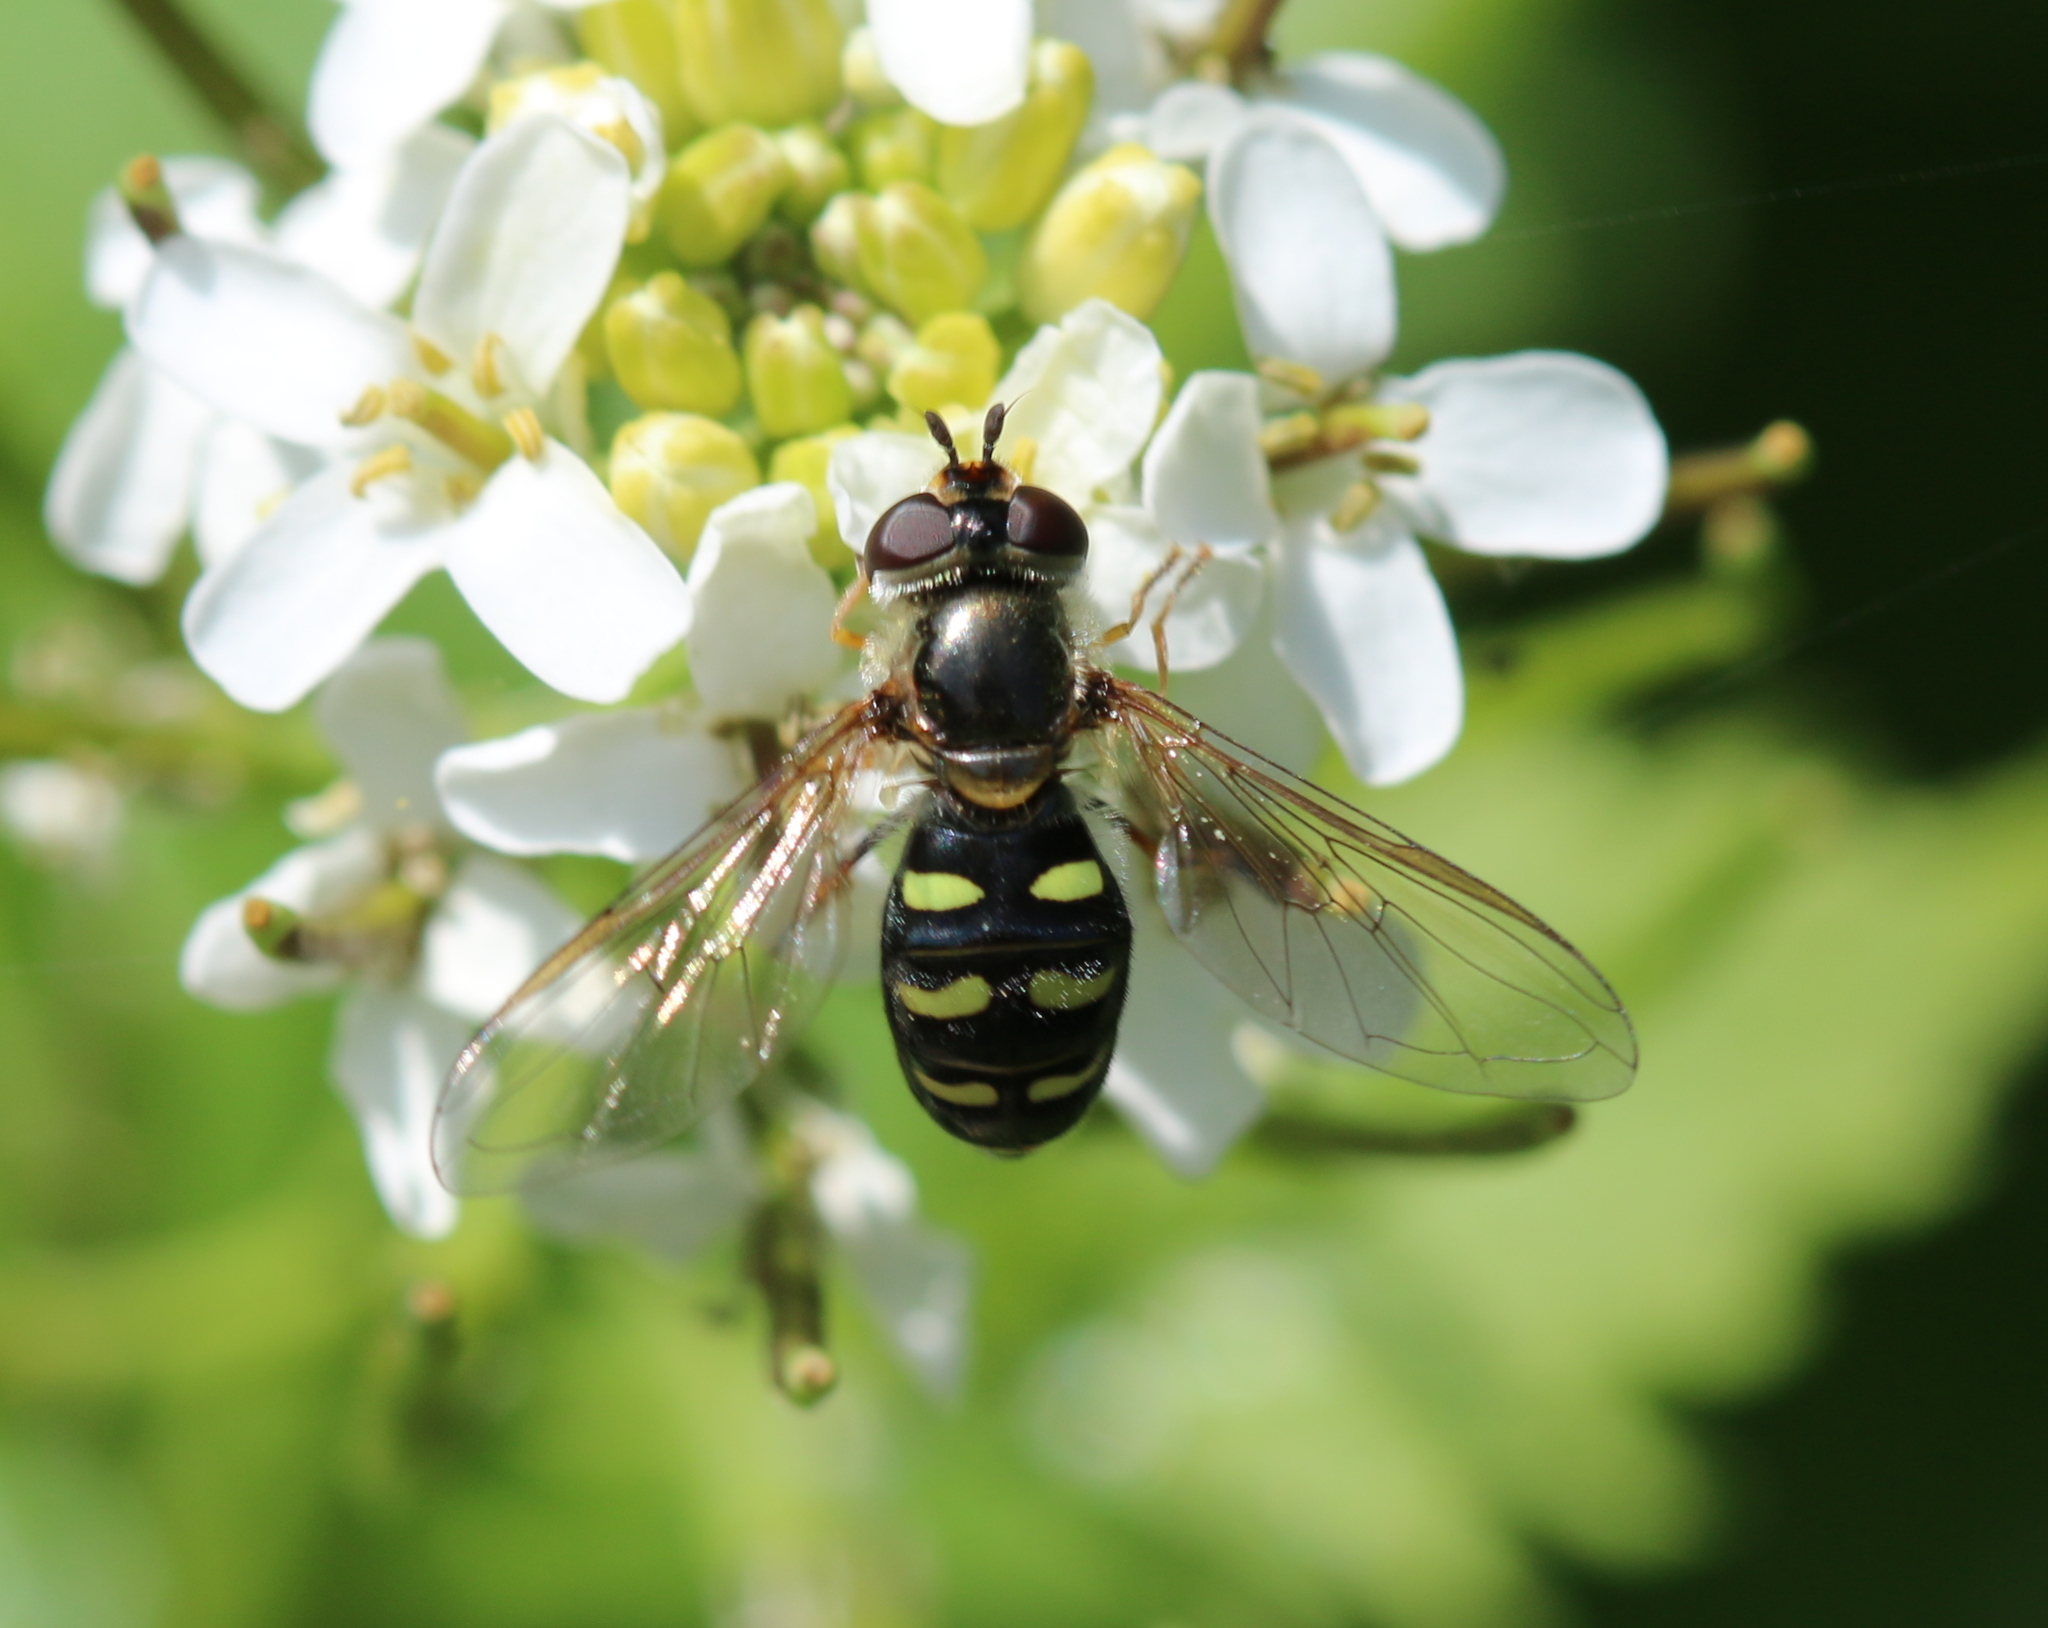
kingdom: Animalia
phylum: Arthropoda
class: Insecta
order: Diptera
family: Syrphidae
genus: Eupeodes
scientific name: Eupeodes
